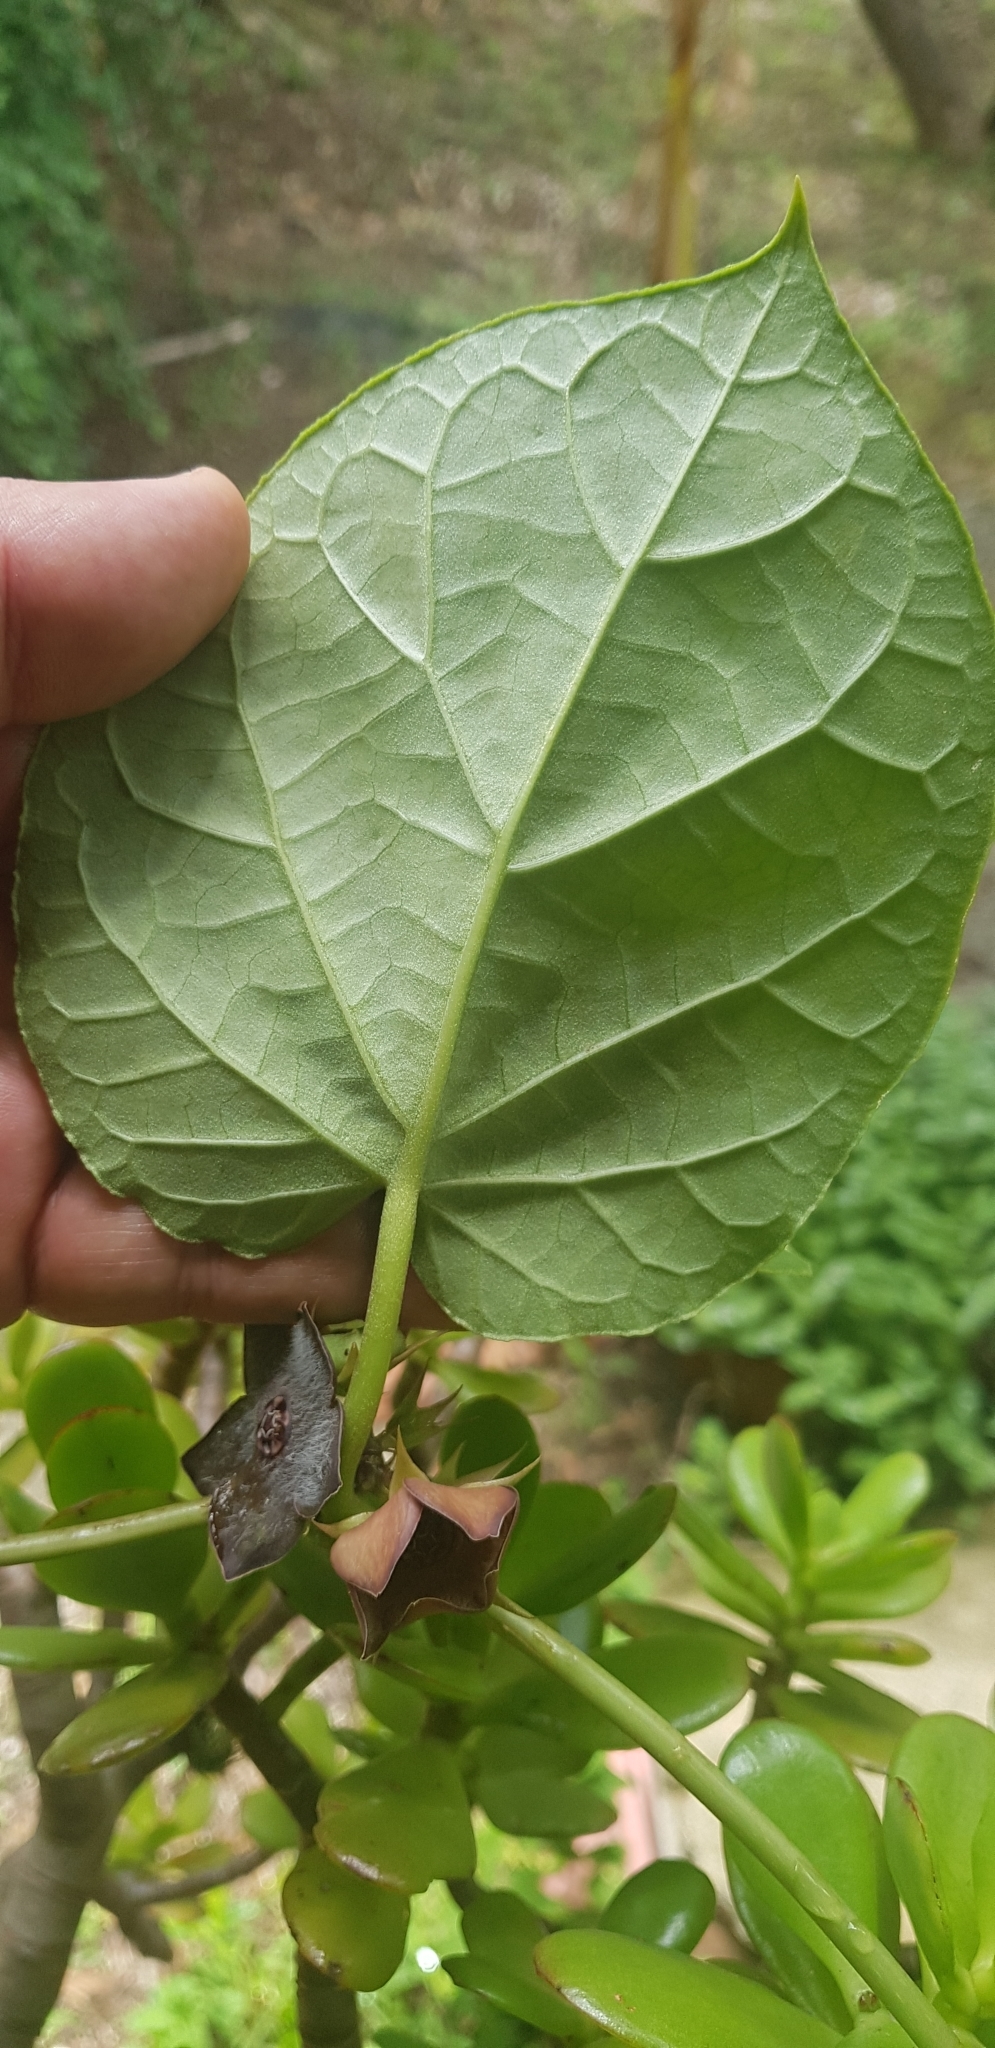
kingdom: Plantae
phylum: Tracheophyta
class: Magnoliopsida
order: Gentianales
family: Apocynaceae
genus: Suberogerens
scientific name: Suberogerens cyclophylla
